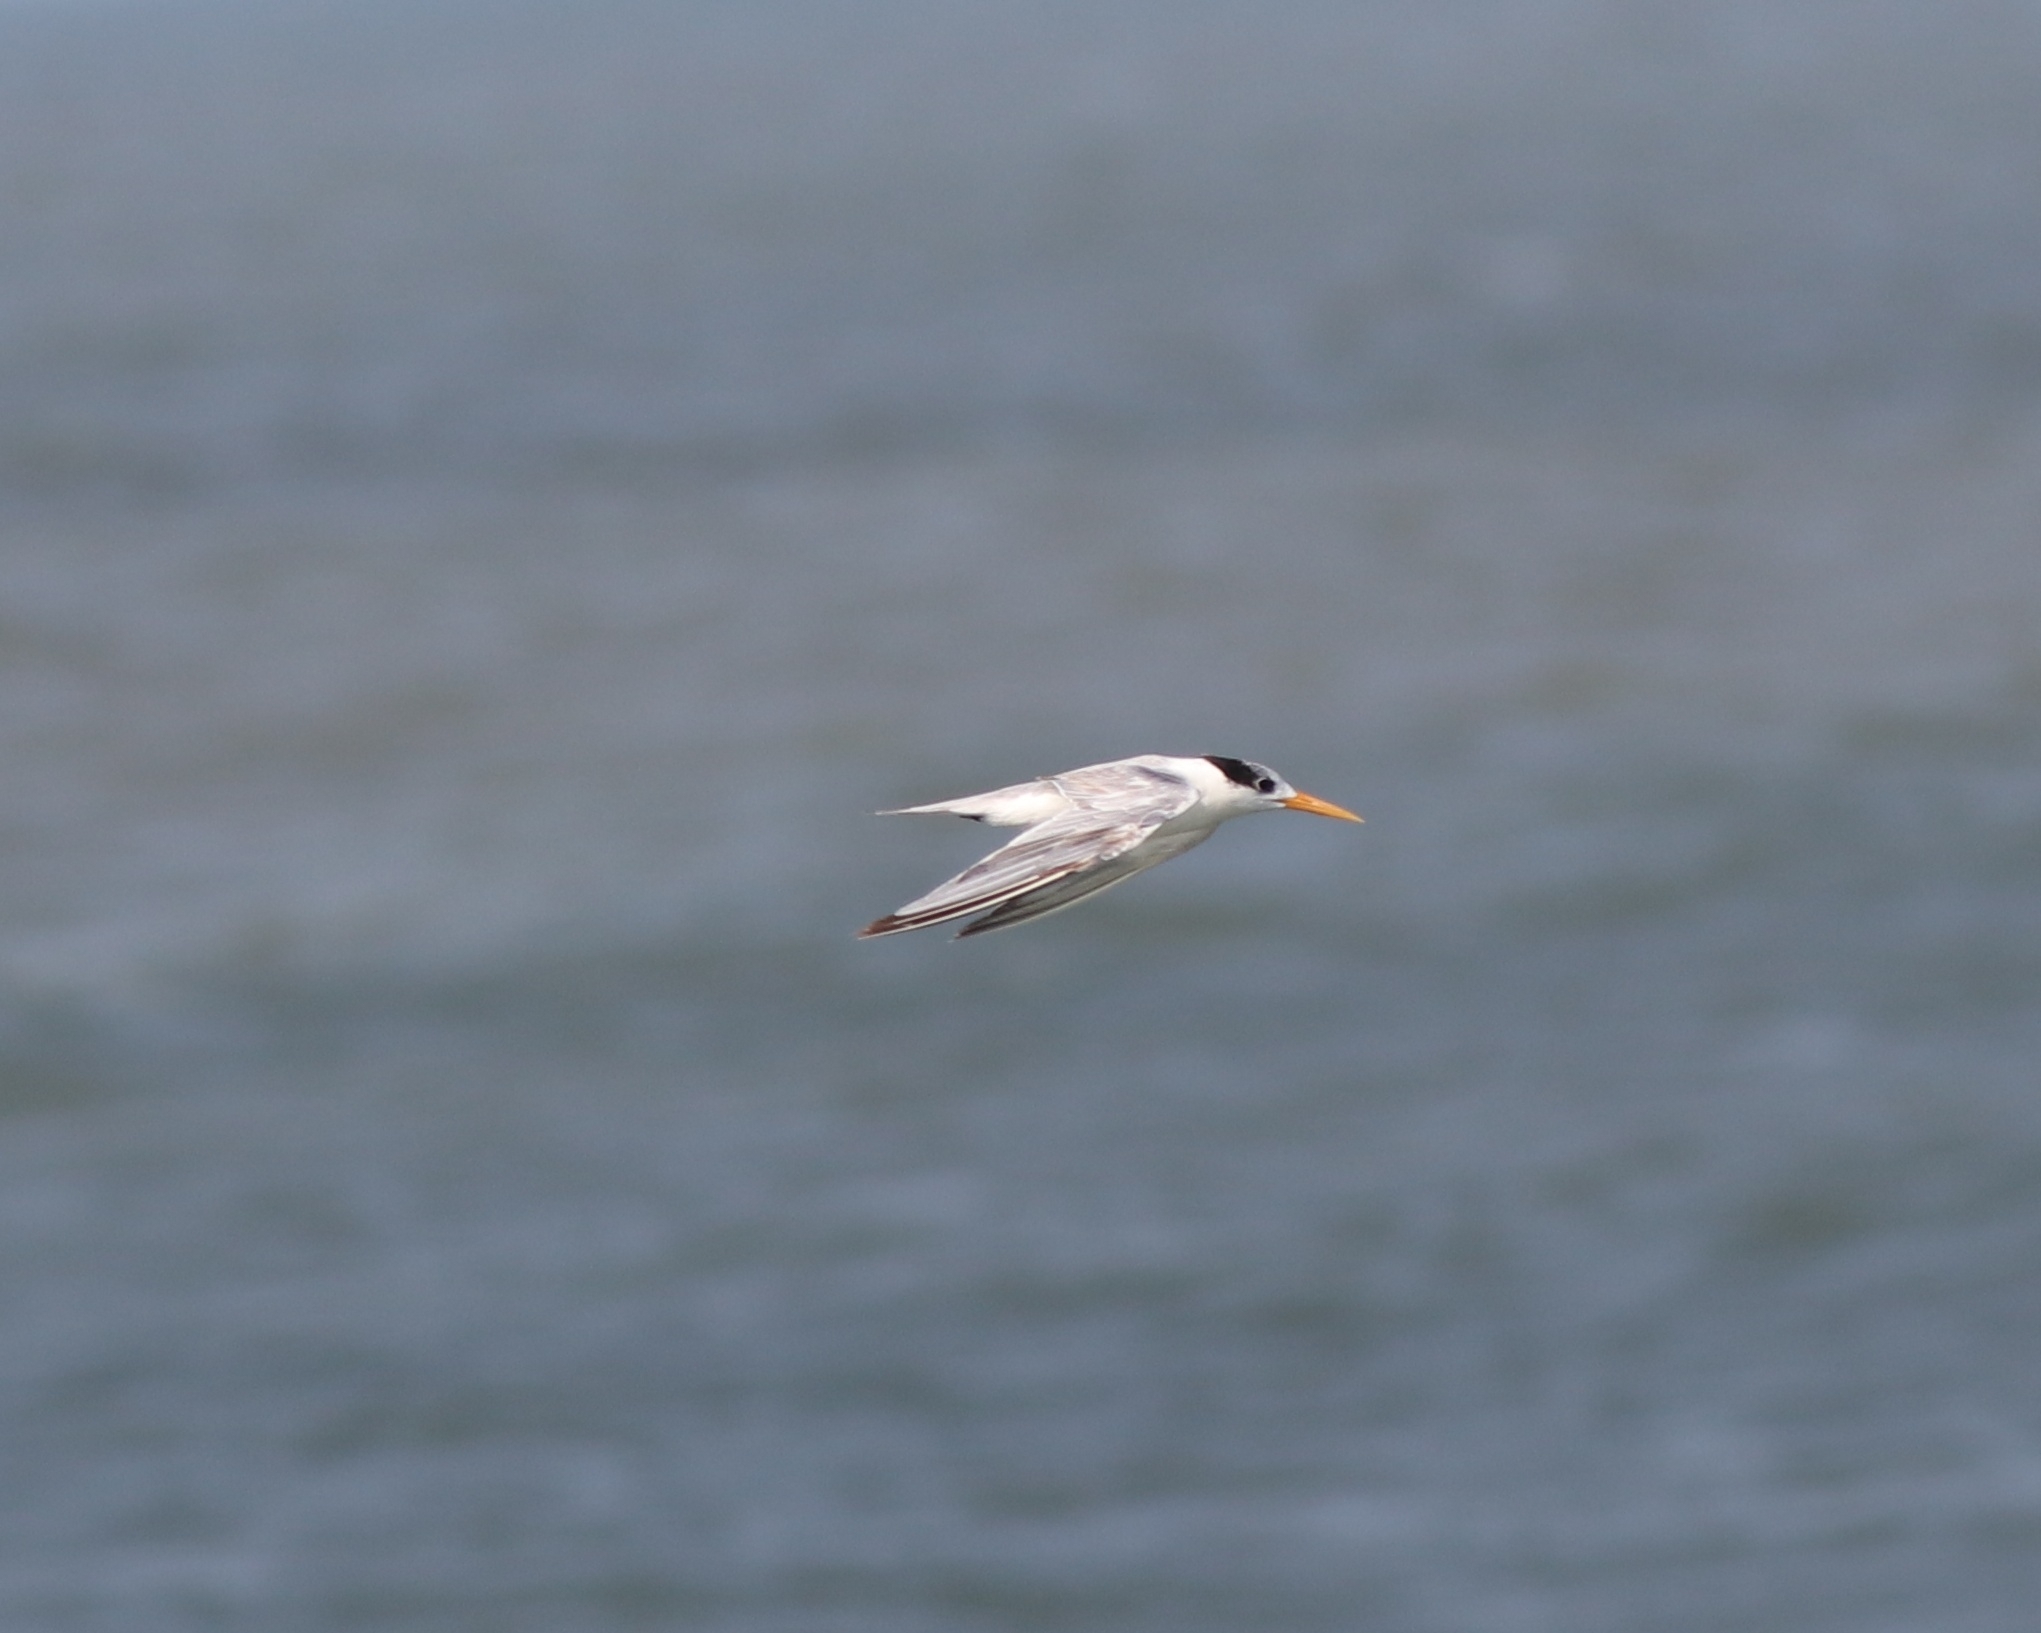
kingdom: Animalia
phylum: Chordata
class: Aves
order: Charadriiformes
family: Laridae
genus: Thalasseus
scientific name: Thalasseus bengalensis
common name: Lesser crested tern
